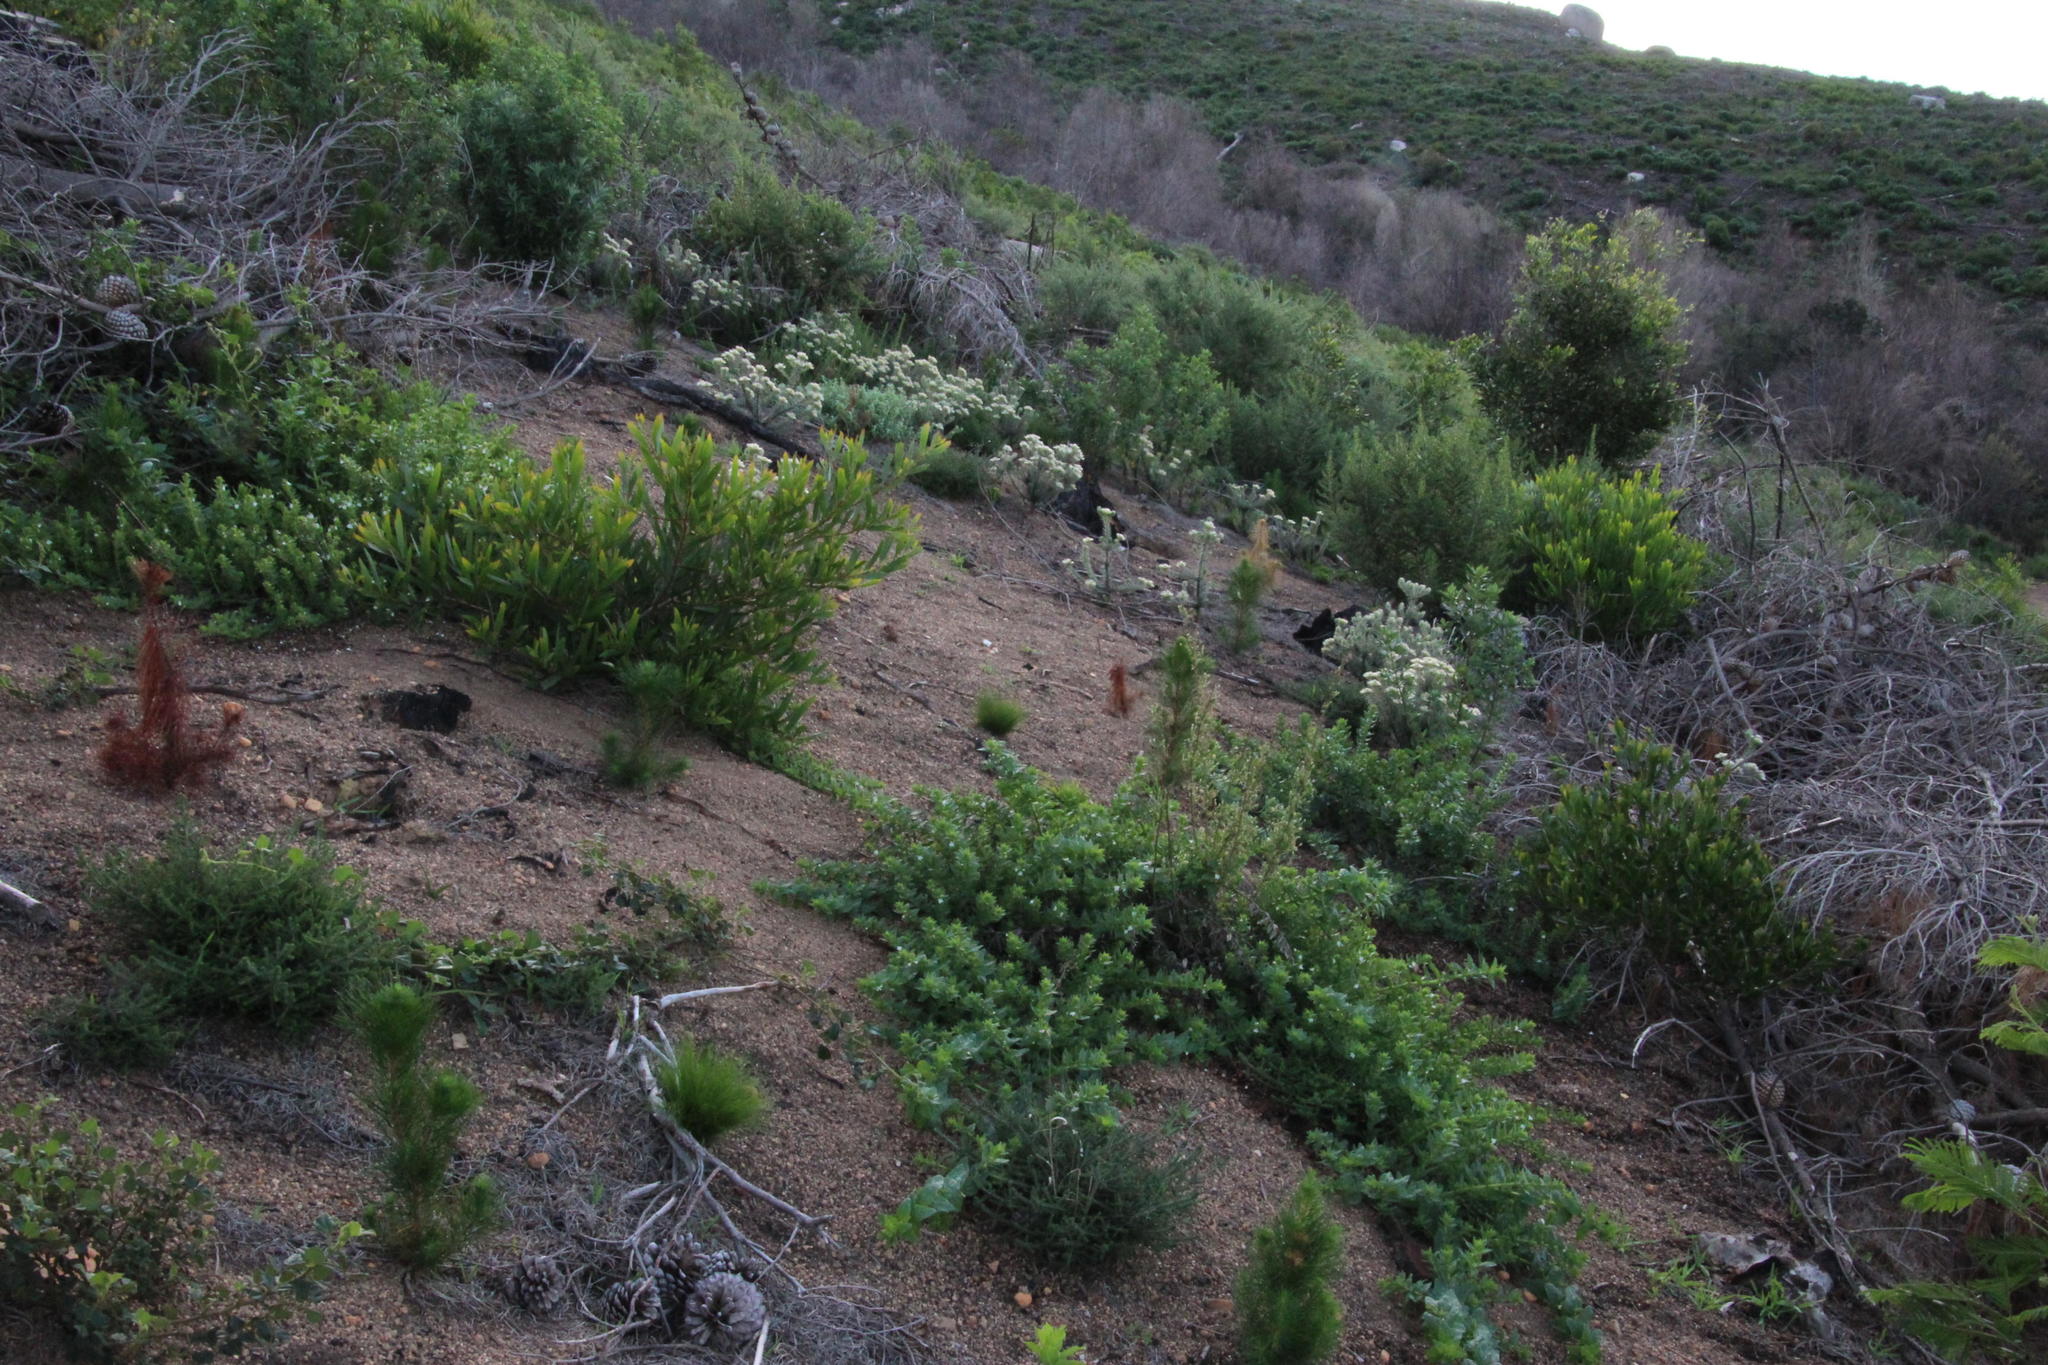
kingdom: Plantae
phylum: Tracheophyta
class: Magnoliopsida
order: Lamiales
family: Scrophulariaceae
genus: Oftia
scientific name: Oftia africana
